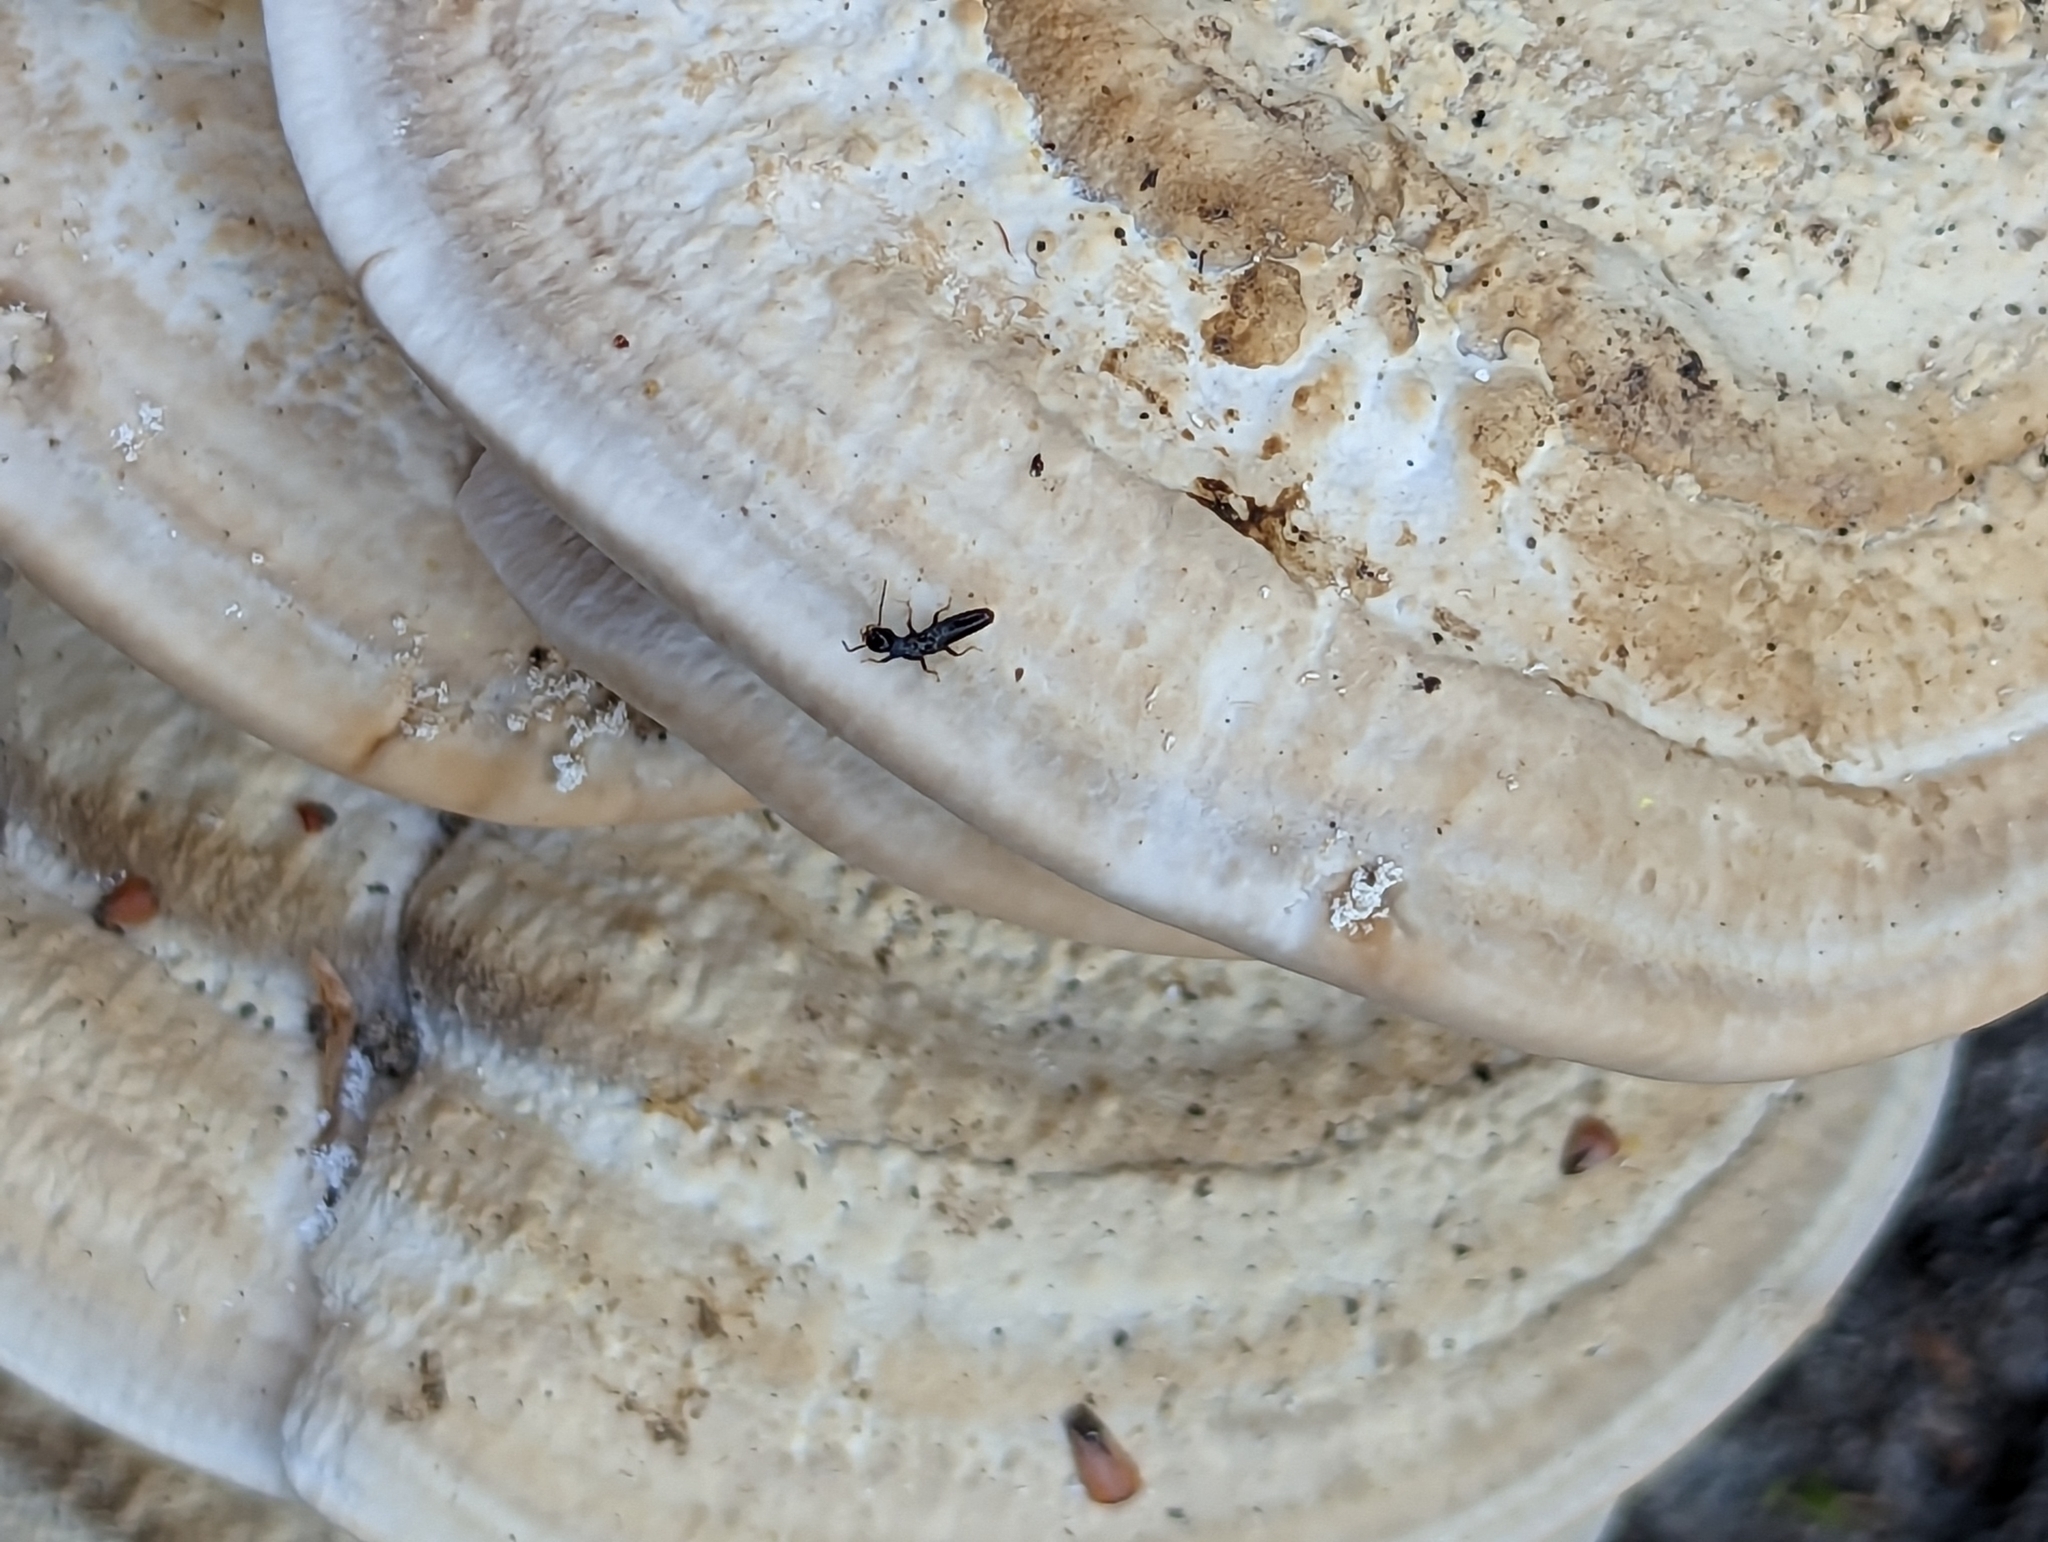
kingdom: Animalia
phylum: Arthropoda
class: Insecta
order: Blattodea
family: Rhinotermitidae
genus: Reticulitermes
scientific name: Reticulitermes flavipes
